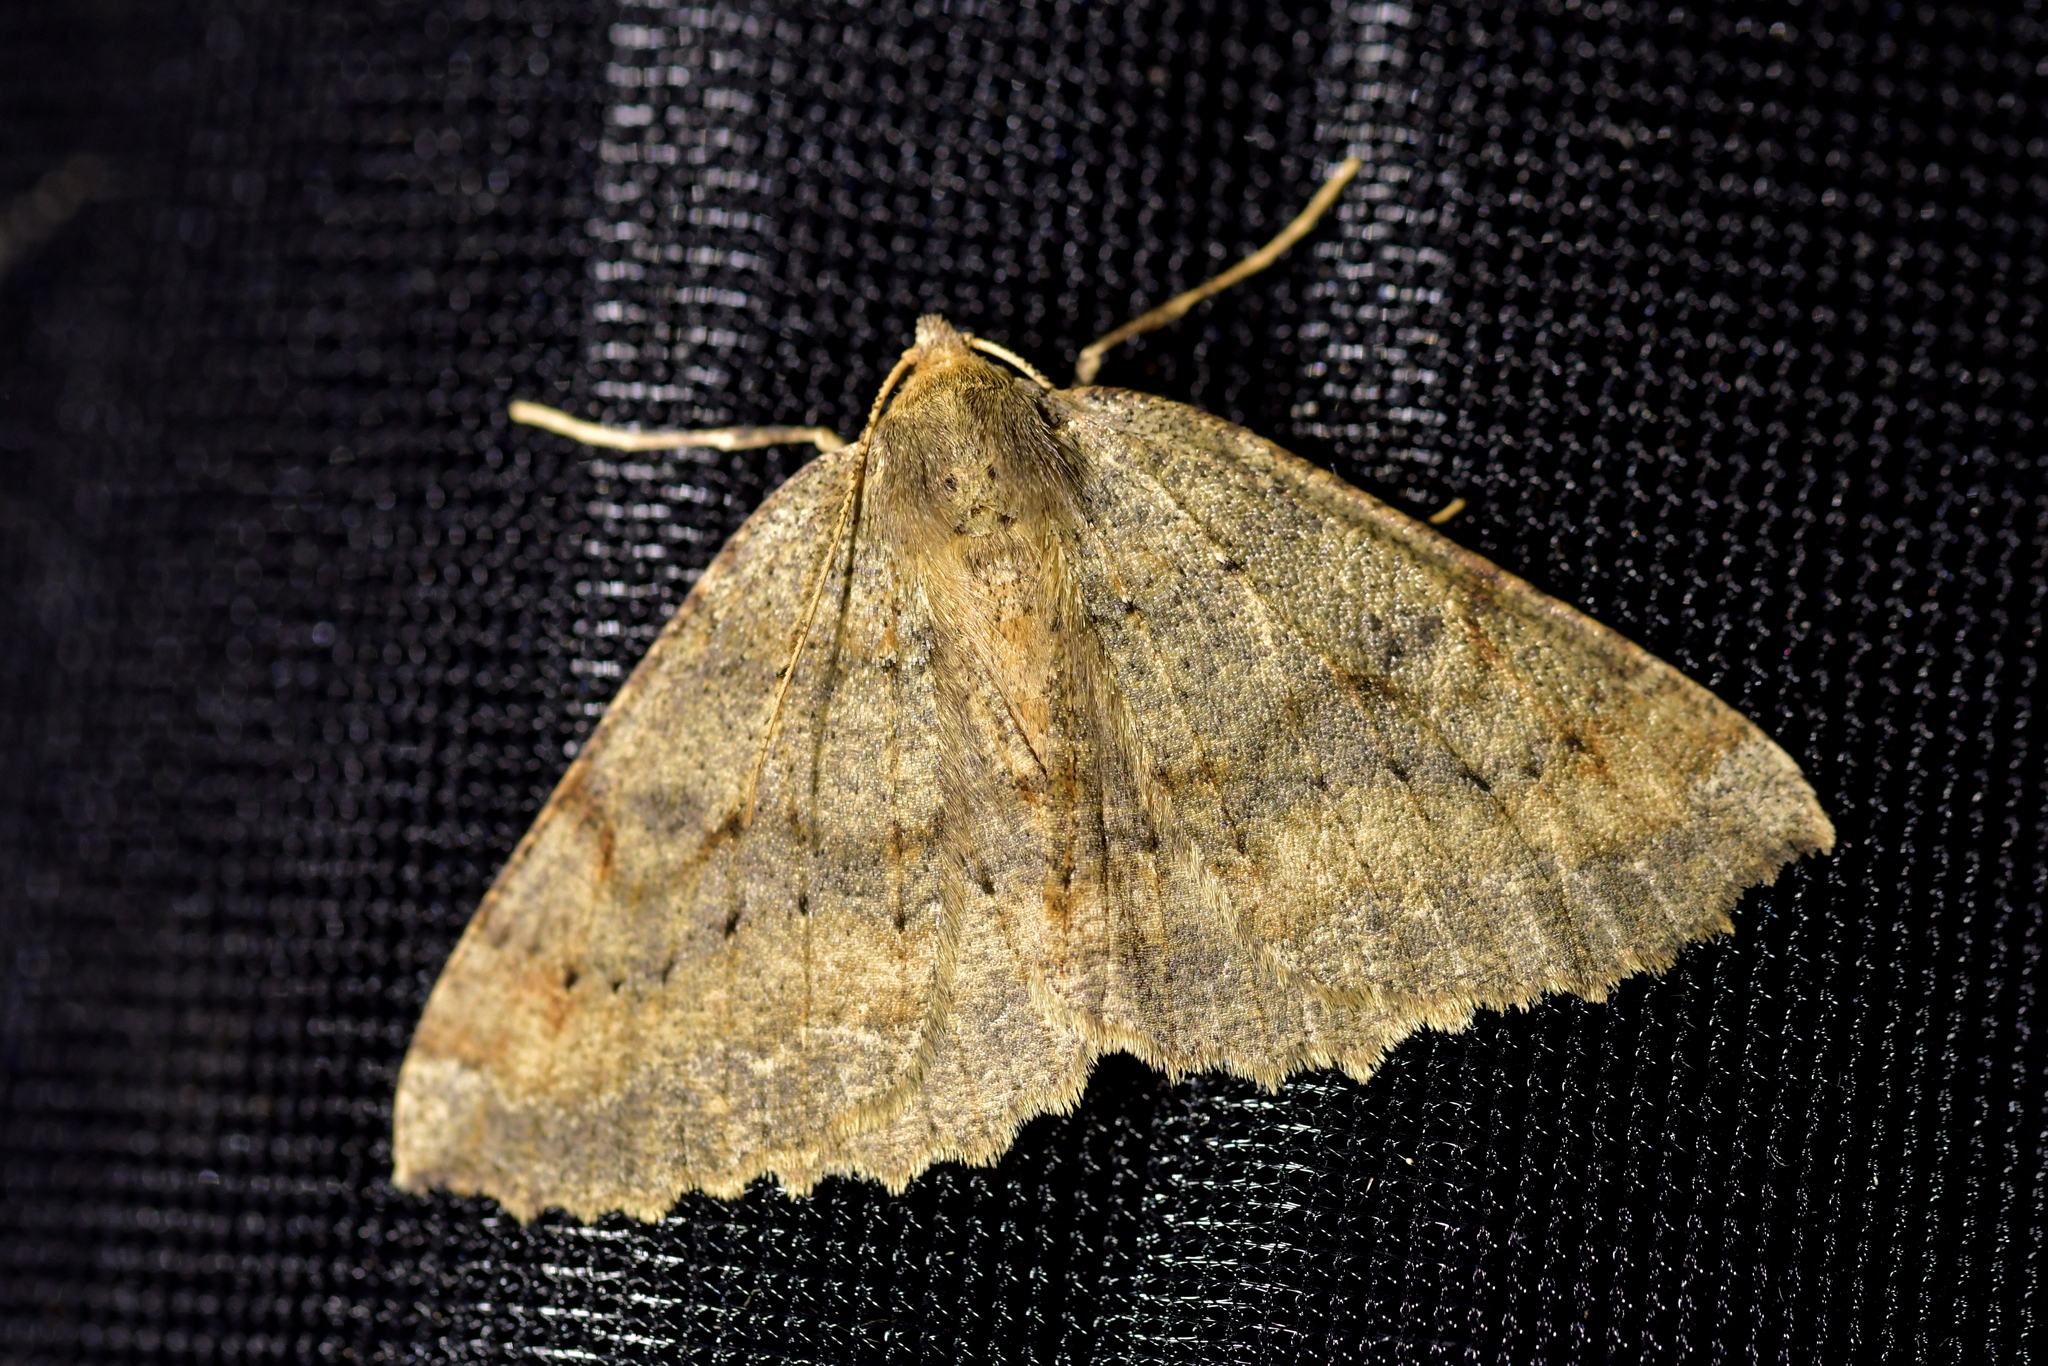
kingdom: Animalia
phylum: Arthropoda
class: Insecta
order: Lepidoptera
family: Geometridae
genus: Cleora
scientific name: Cleora scriptaria
